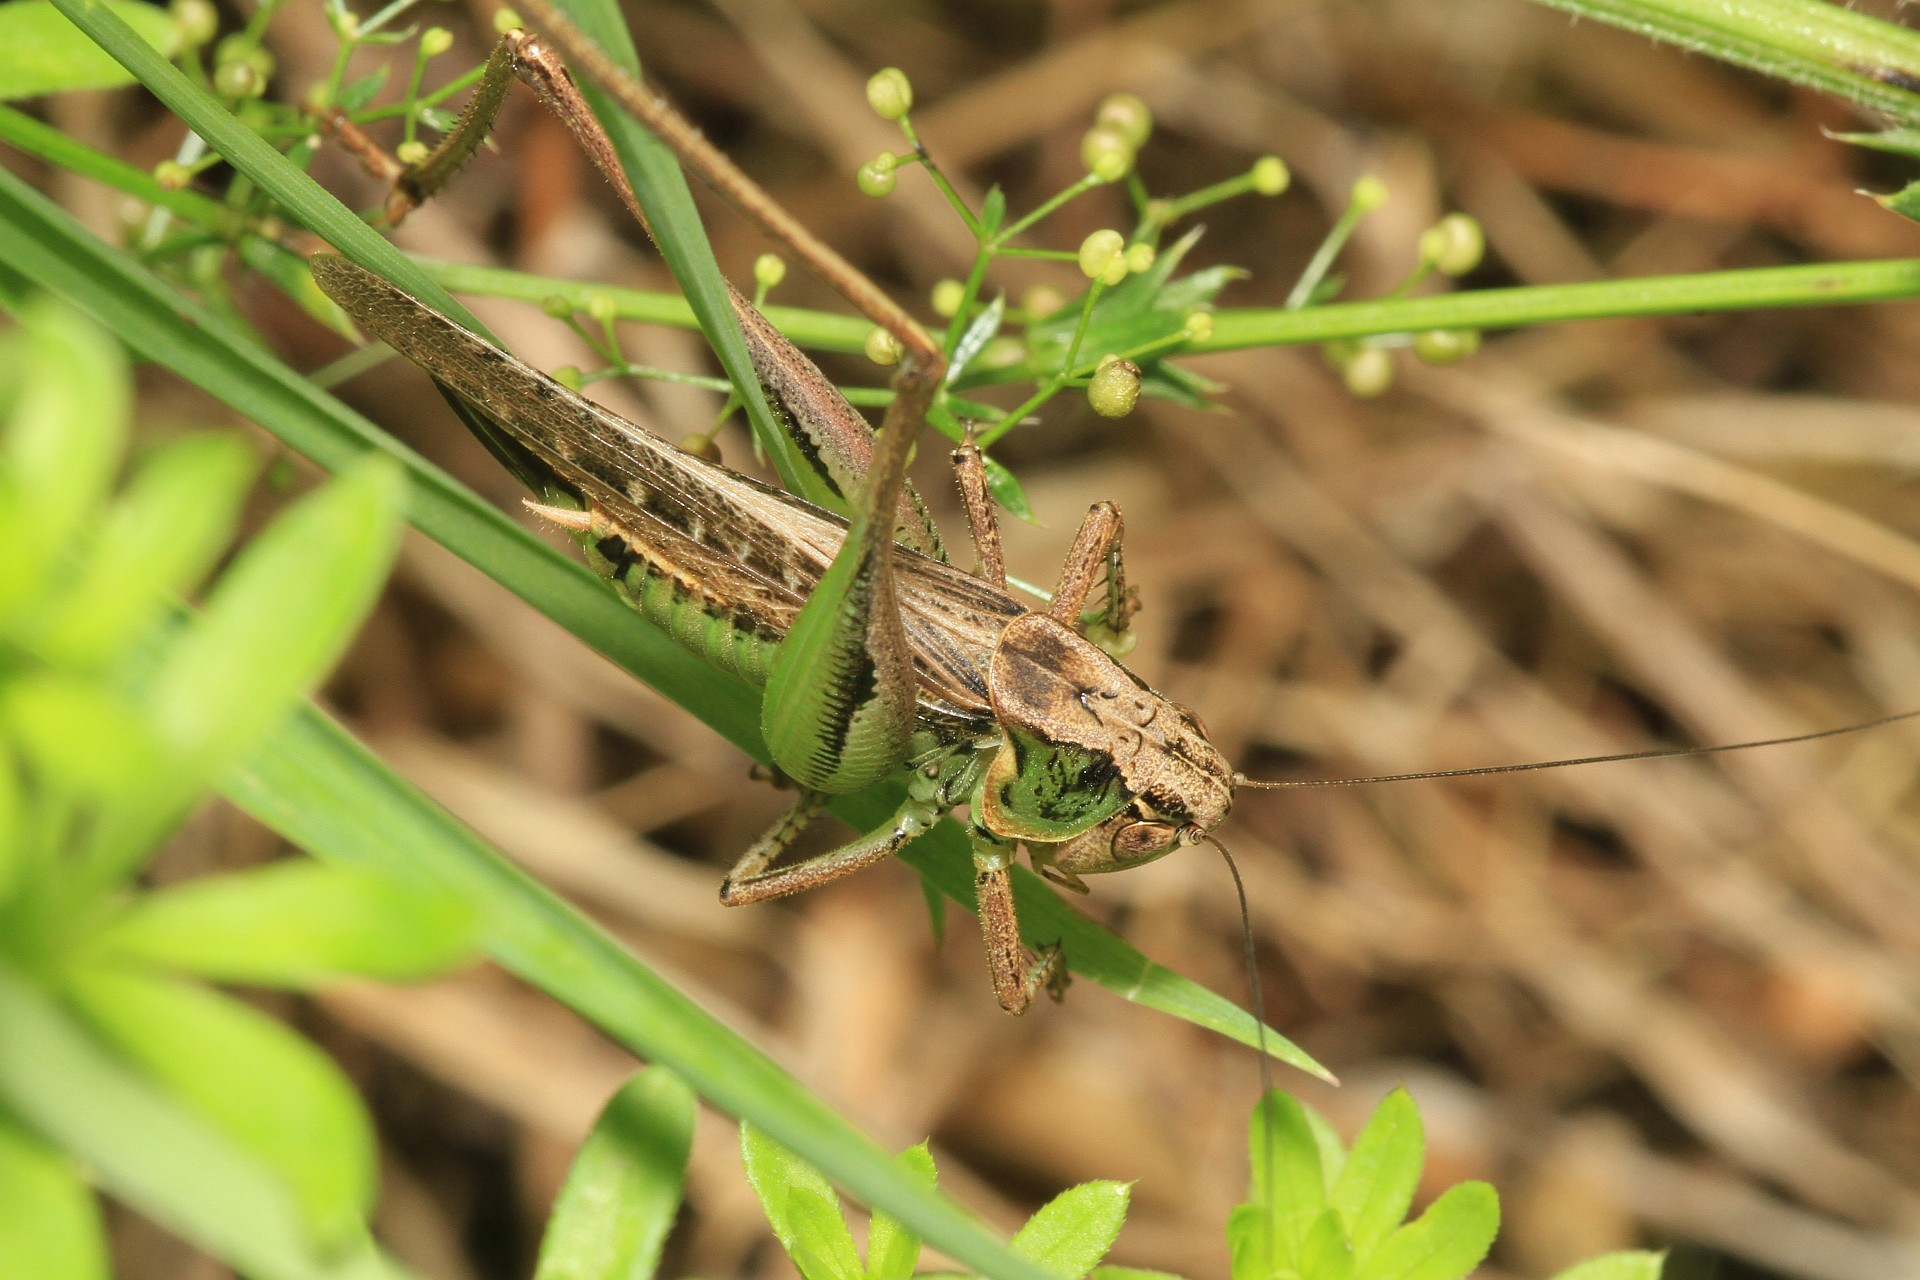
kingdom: Animalia
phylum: Arthropoda
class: Insecta
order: Orthoptera
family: Tettigoniidae
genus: Platycleis
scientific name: Platycleis albopunctata
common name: Grey bush-cricket
